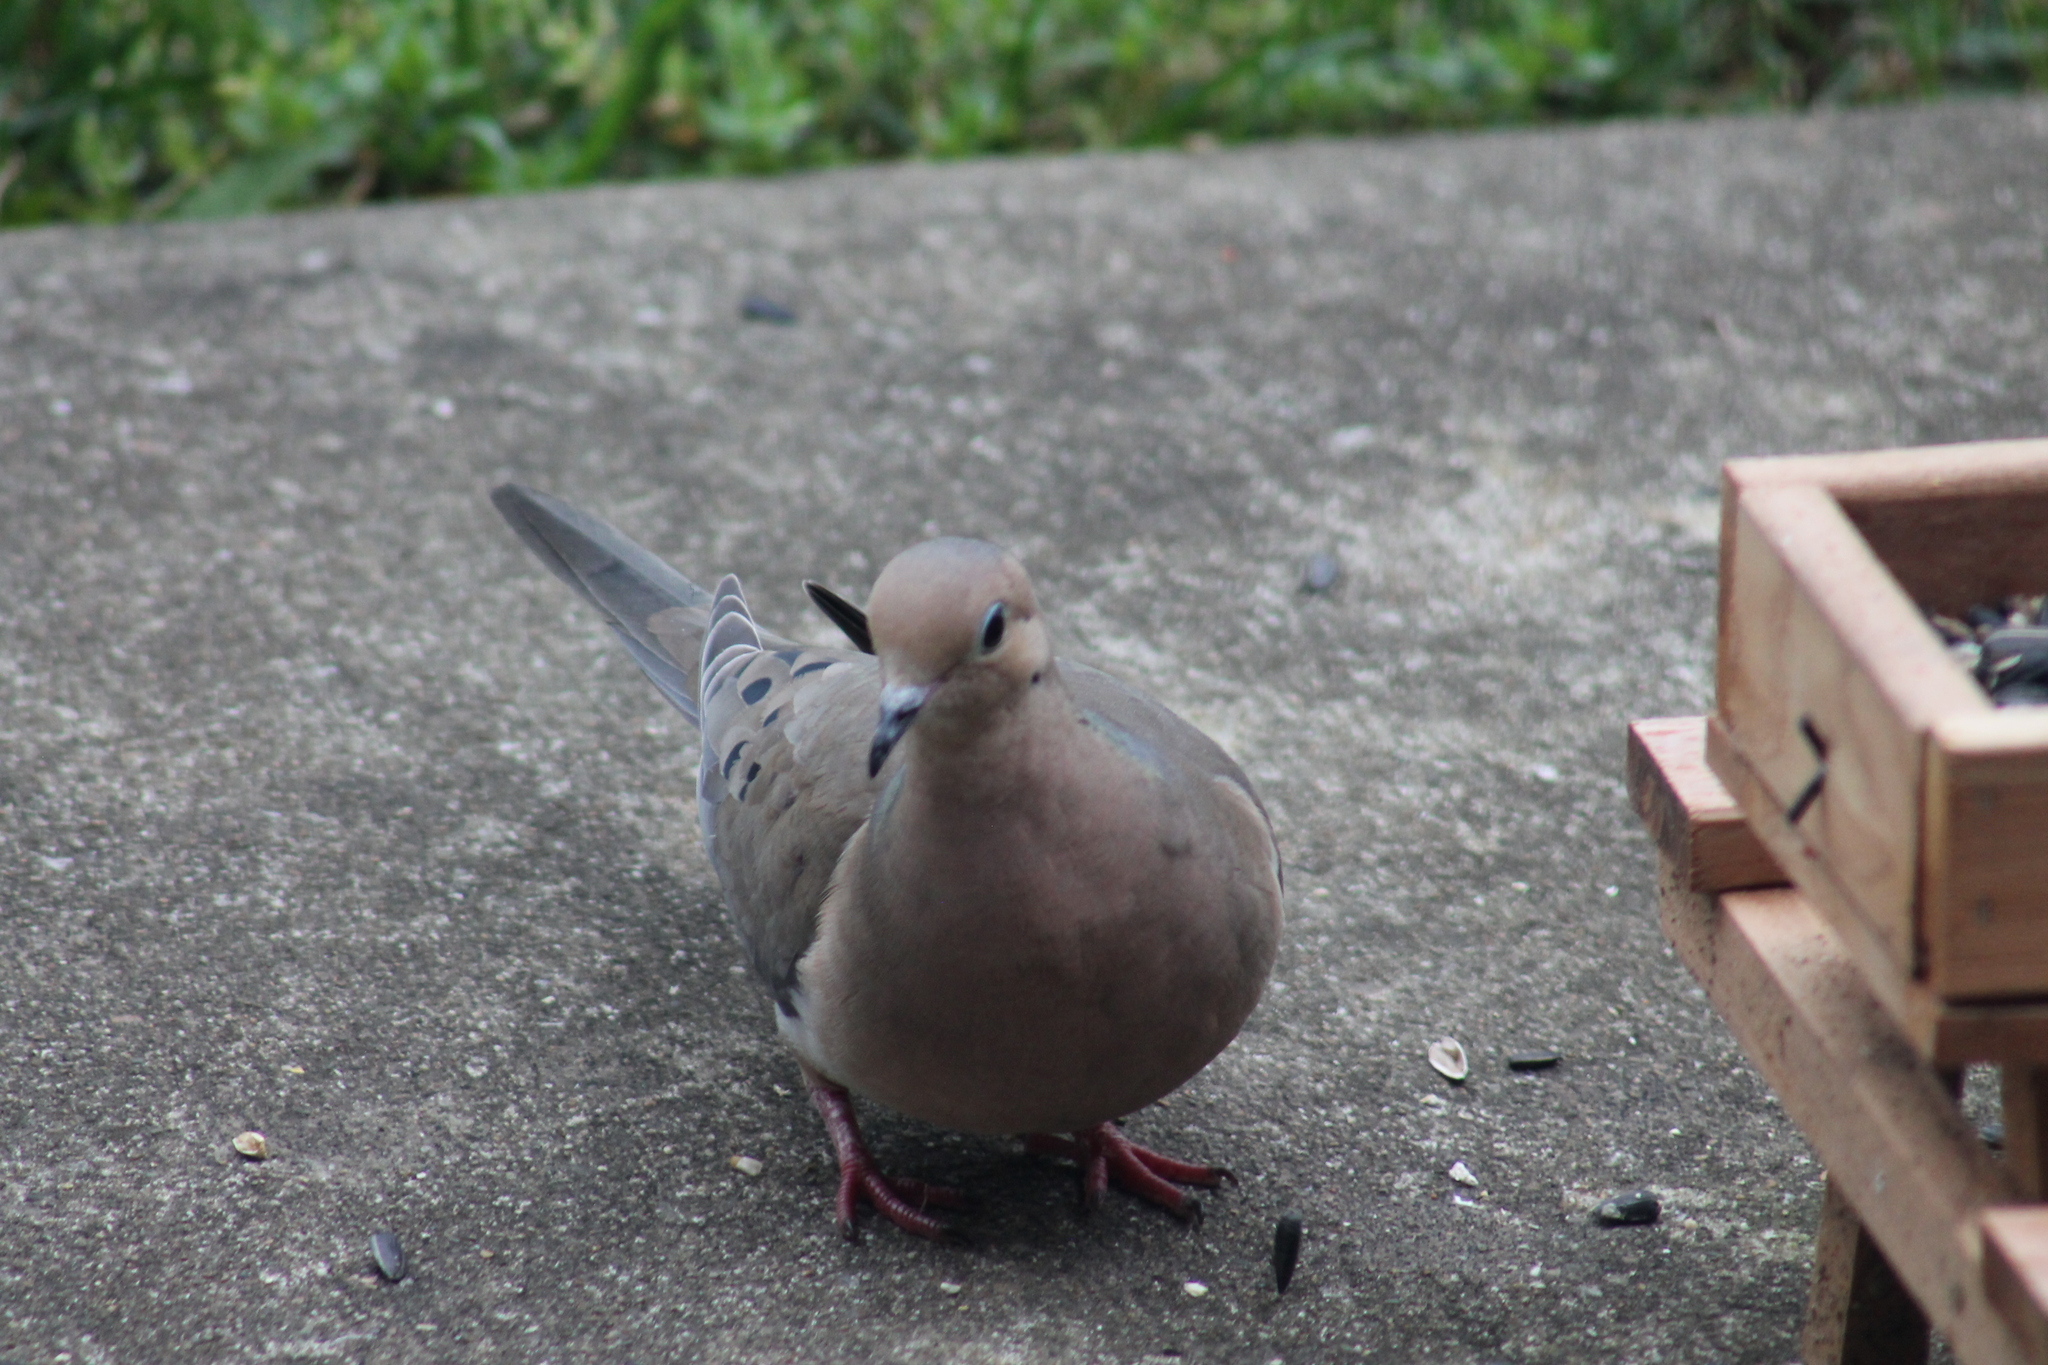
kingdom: Animalia
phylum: Chordata
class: Aves
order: Columbiformes
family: Columbidae
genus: Zenaida
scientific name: Zenaida macroura
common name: Mourning dove
